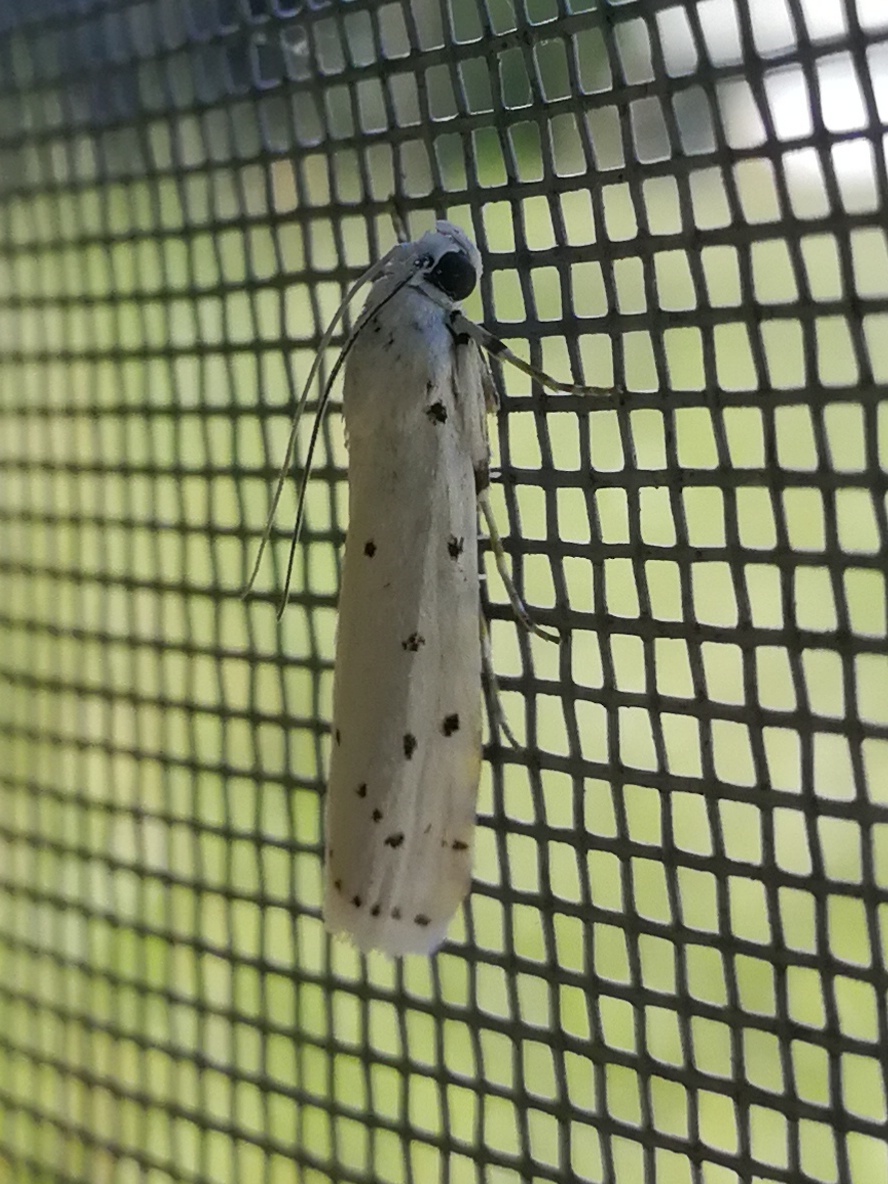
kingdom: Animalia
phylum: Arthropoda
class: Insecta
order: Lepidoptera
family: Pyralidae
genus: Myelois
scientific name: Myelois circumvoluta
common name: Thistle ermine
